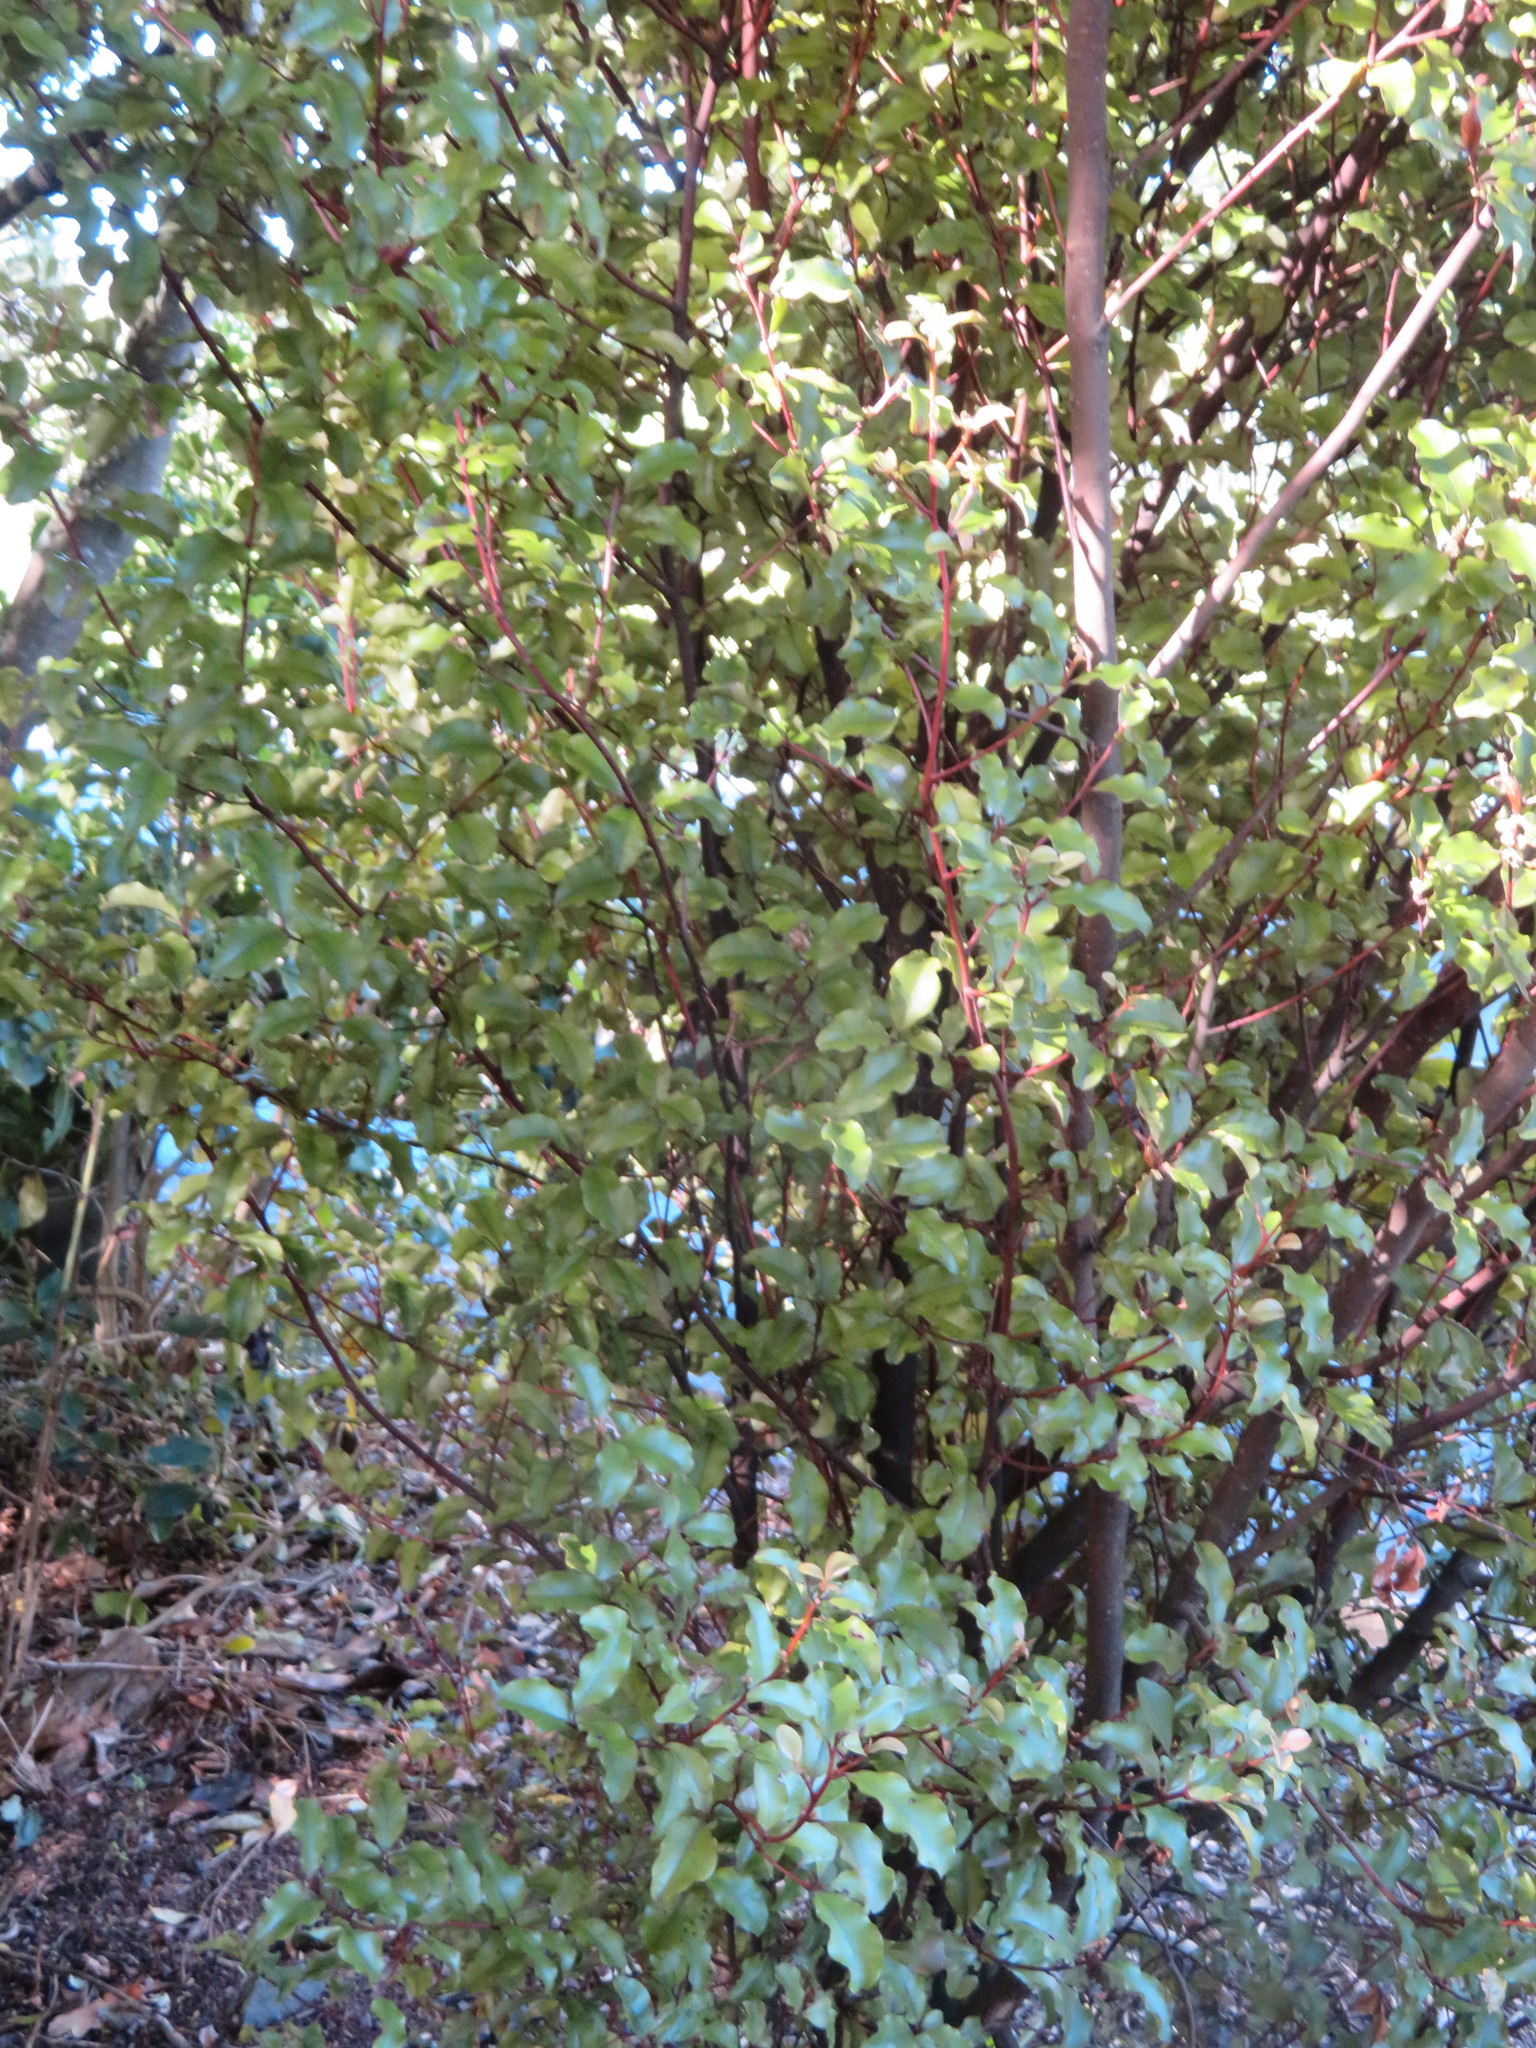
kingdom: Plantae
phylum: Tracheophyta
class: Magnoliopsida
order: Ericales
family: Primulaceae
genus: Myrsine
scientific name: Myrsine australis
